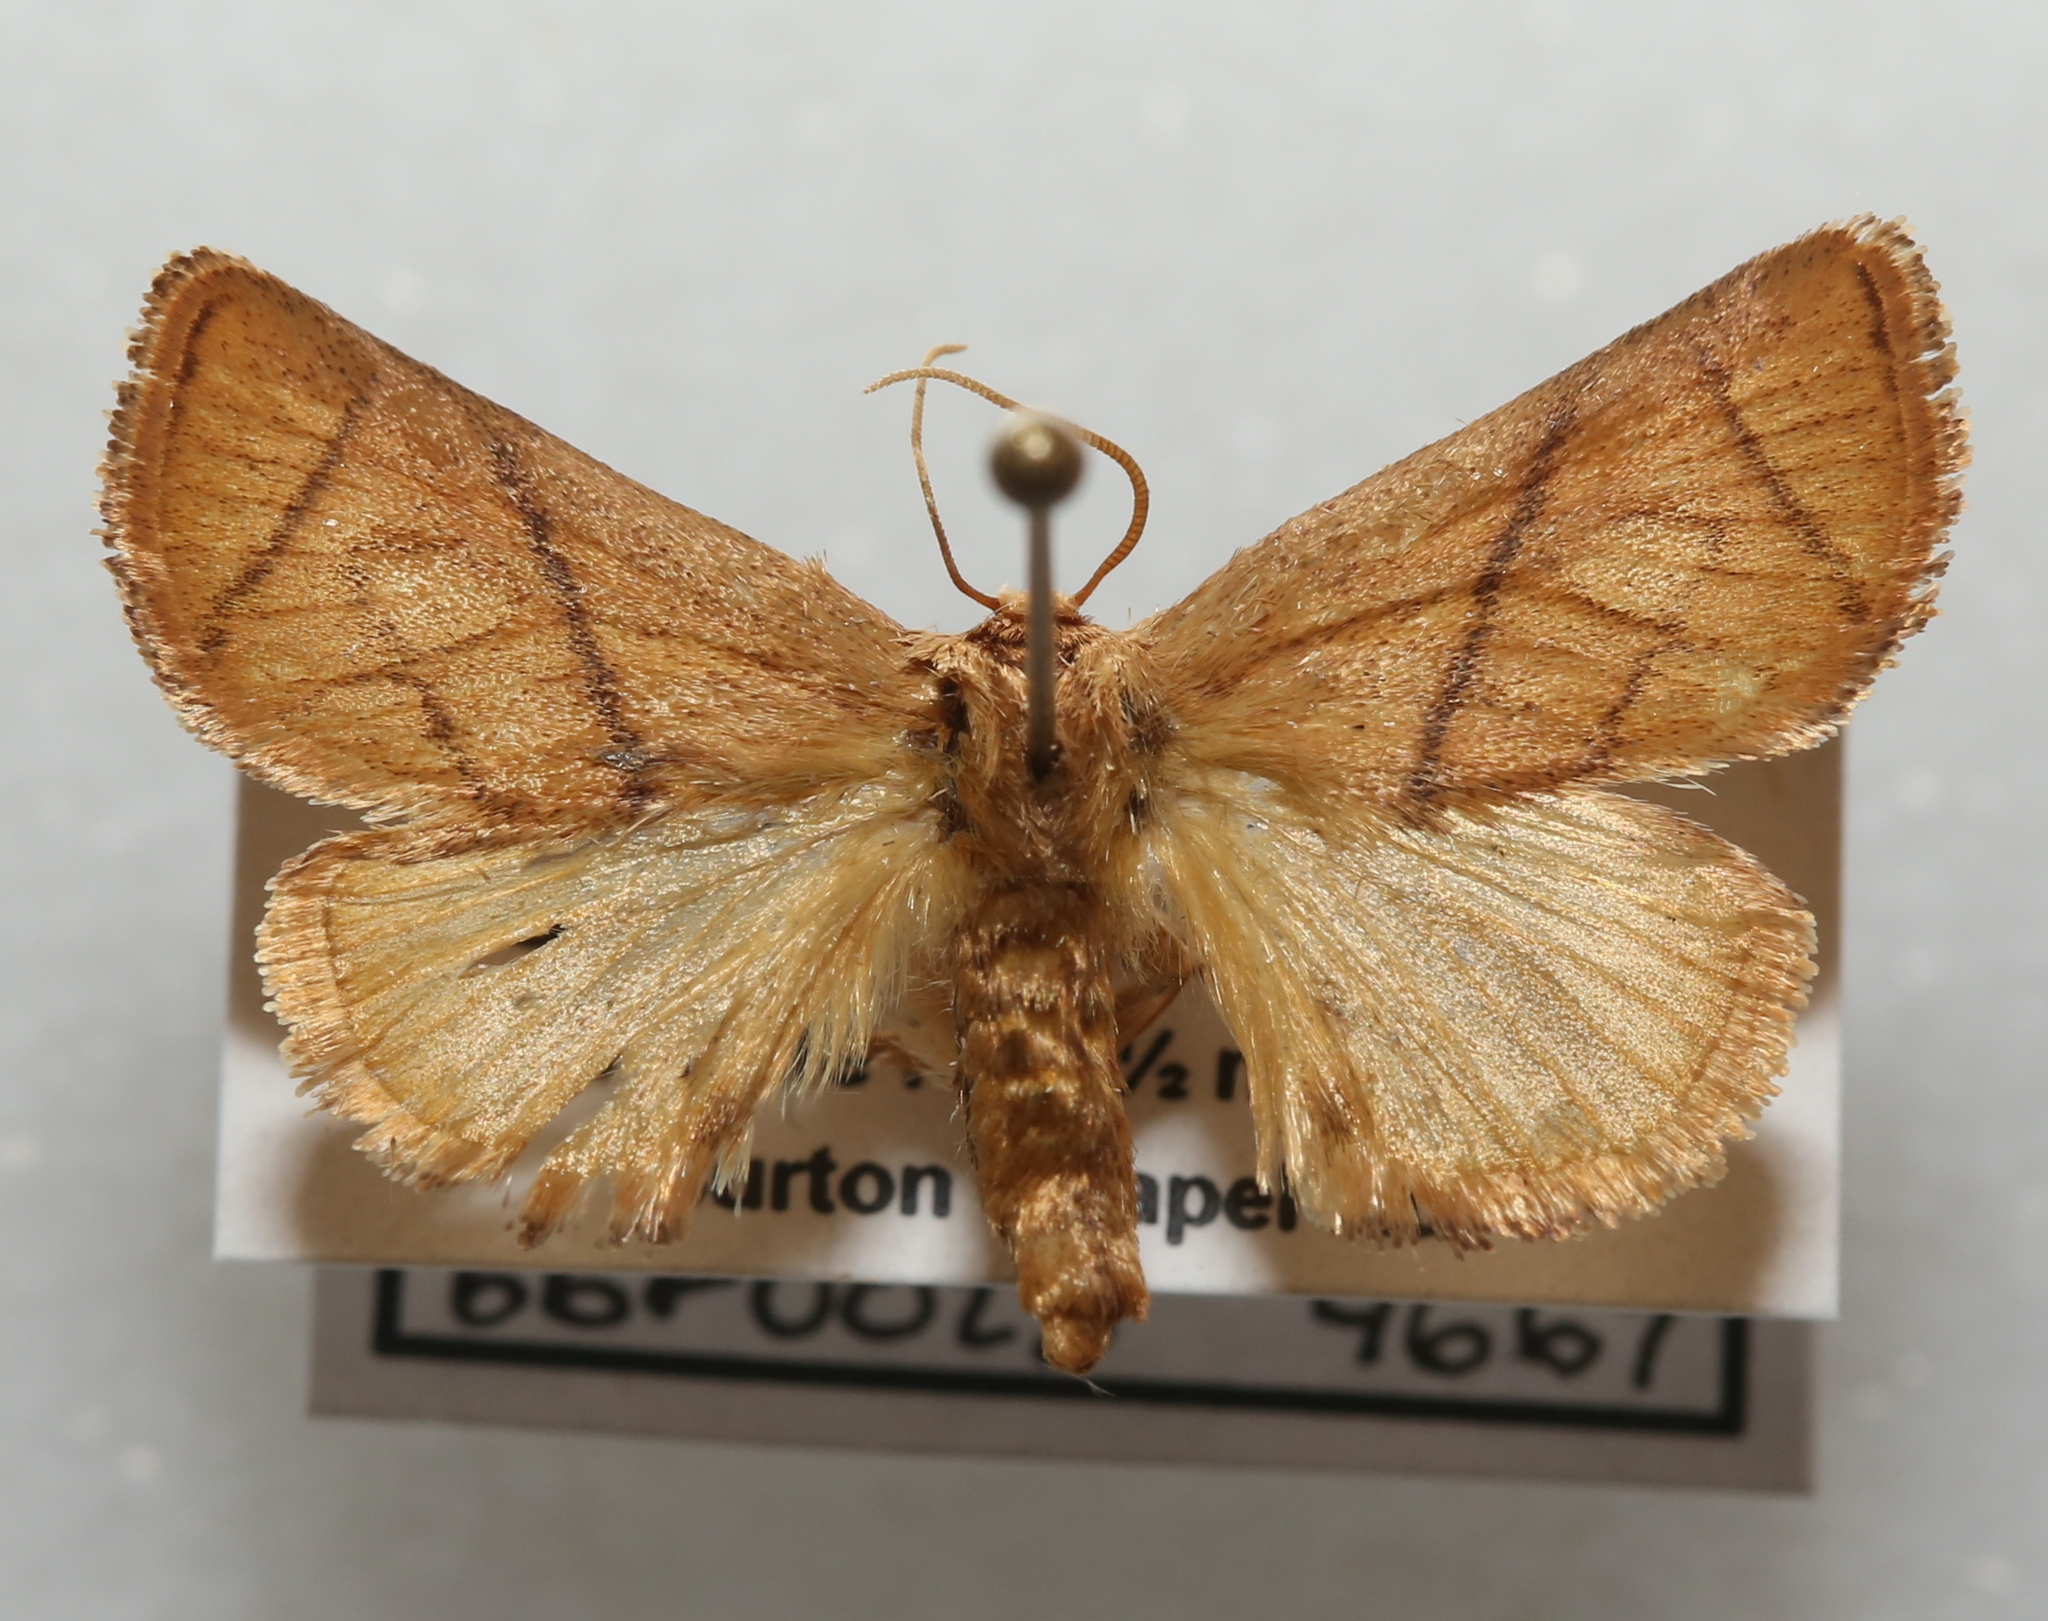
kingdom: Animalia
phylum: Arthropoda
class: Insecta
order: Lepidoptera
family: Limacodidae
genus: Apoda
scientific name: Apoda y-inversa
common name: Yellow-collared slug moth
